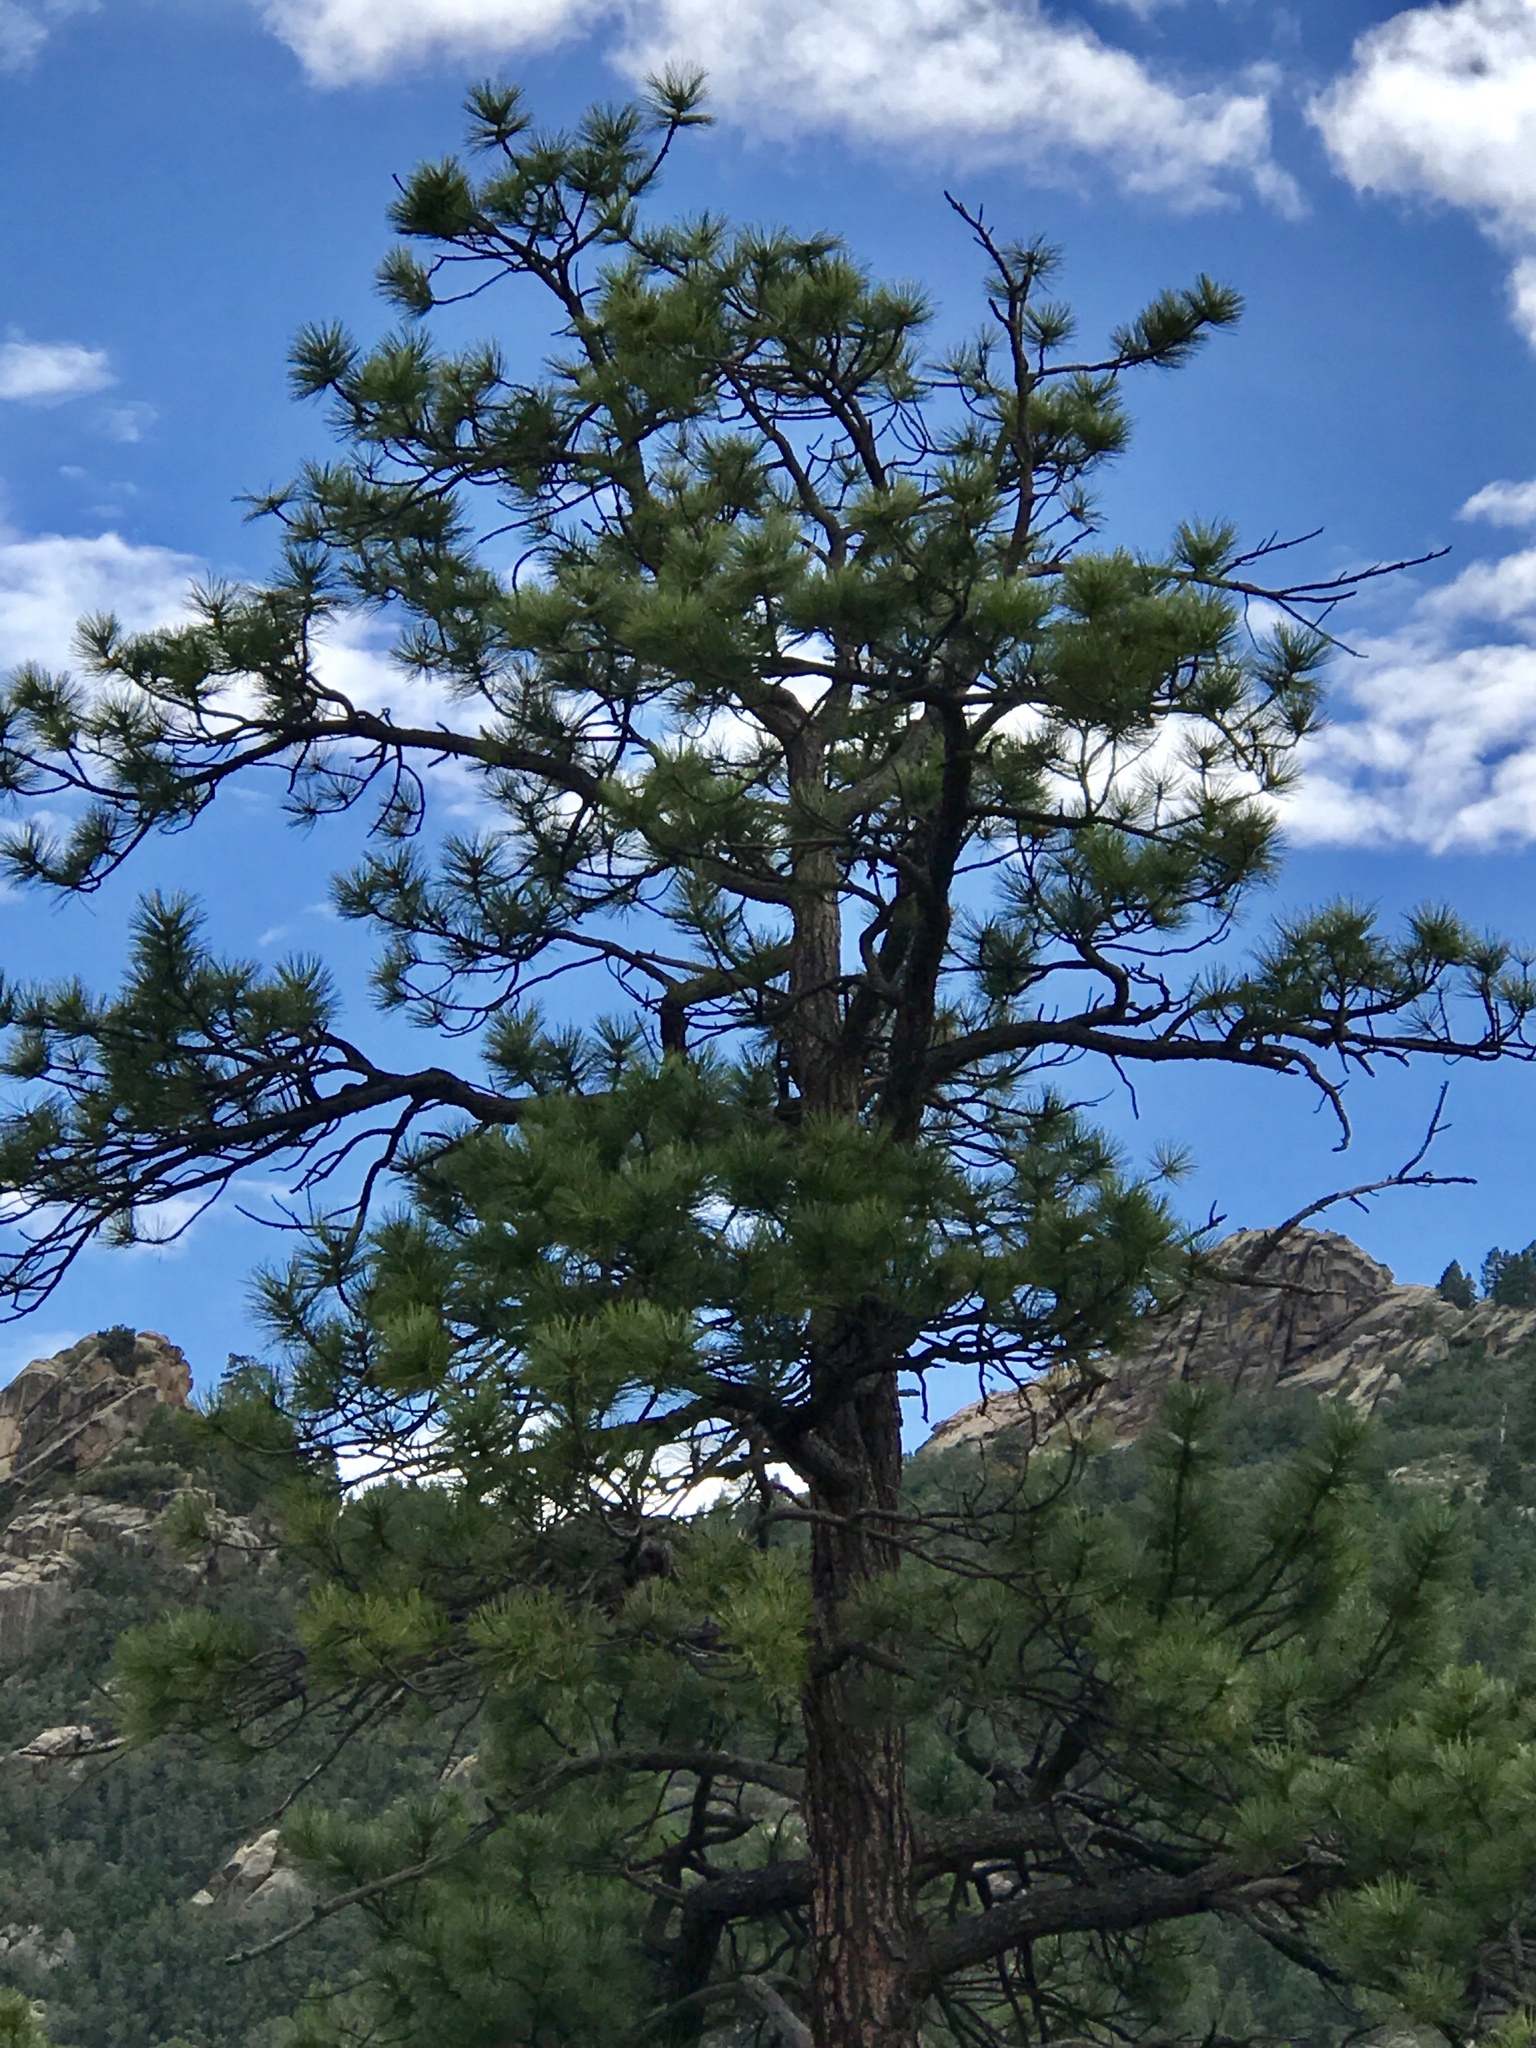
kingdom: Plantae
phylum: Tracheophyta
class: Pinopsida
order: Pinales
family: Pinaceae
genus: Pinus
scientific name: Pinus ponderosa
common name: Western yellow-pine
